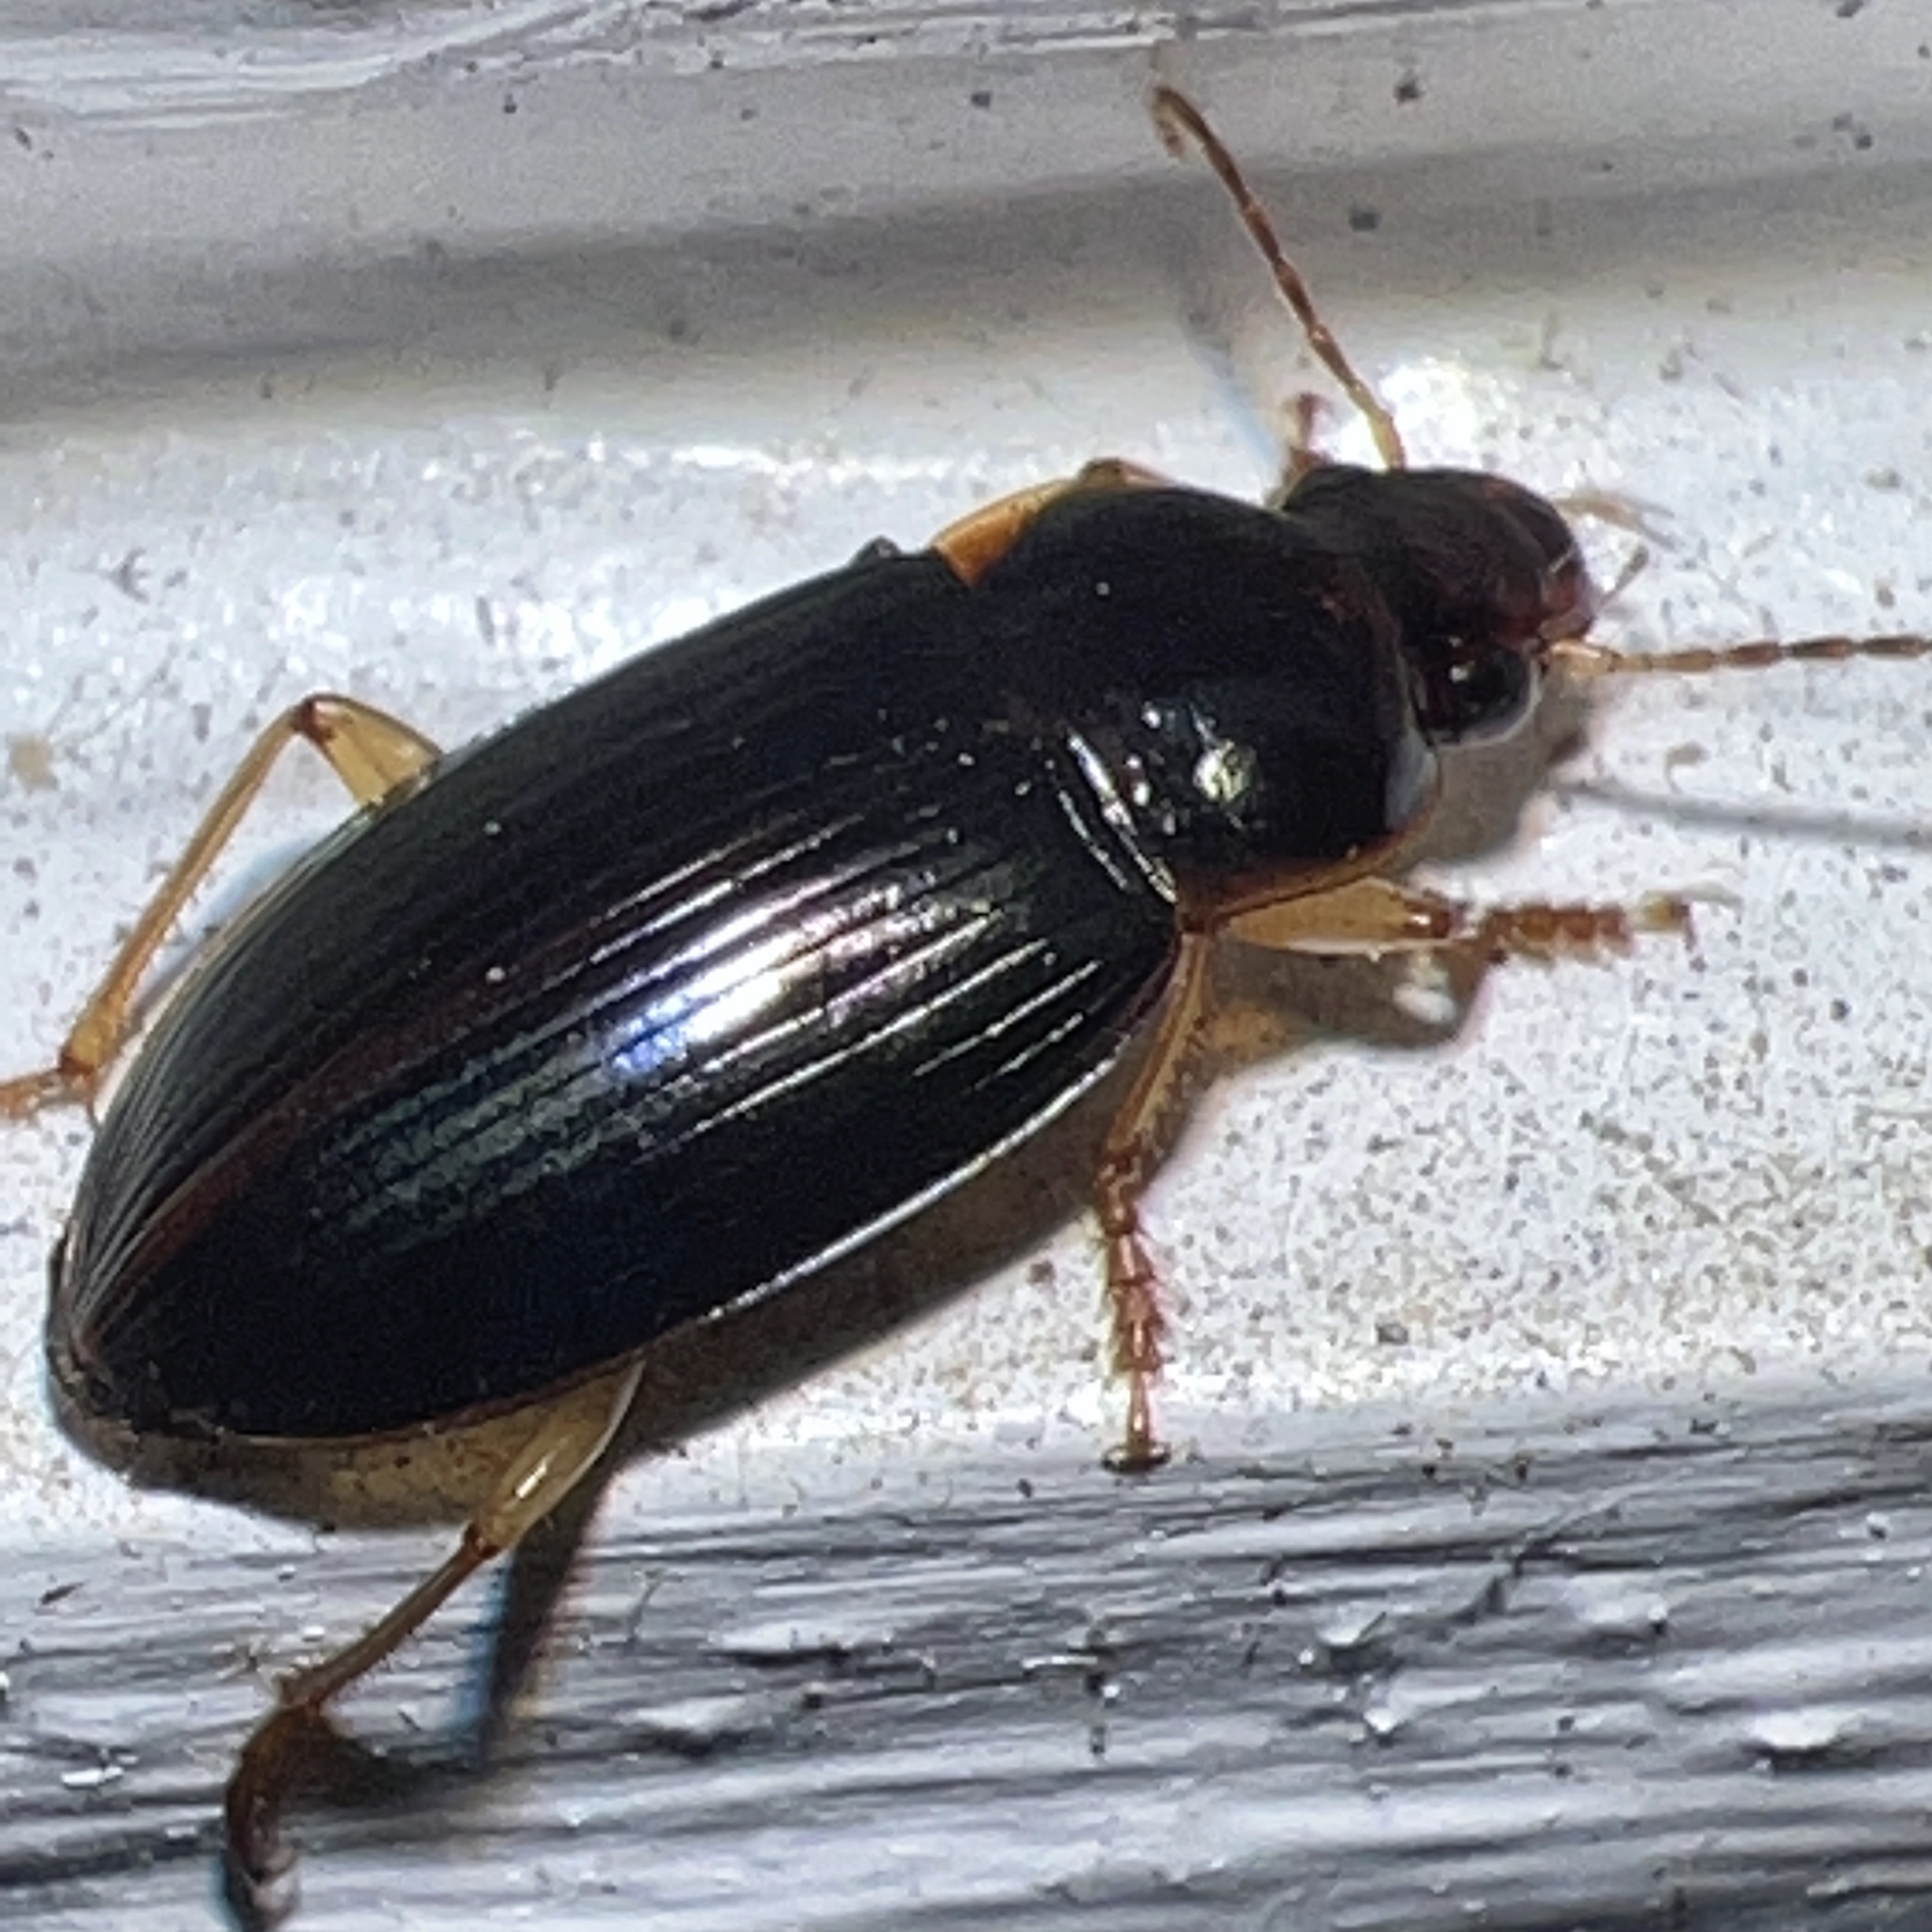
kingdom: Animalia
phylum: Arthropoda
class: Insecta
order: Coleoptera
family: Carabidae
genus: Notiobia
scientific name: Notiobia terminata
